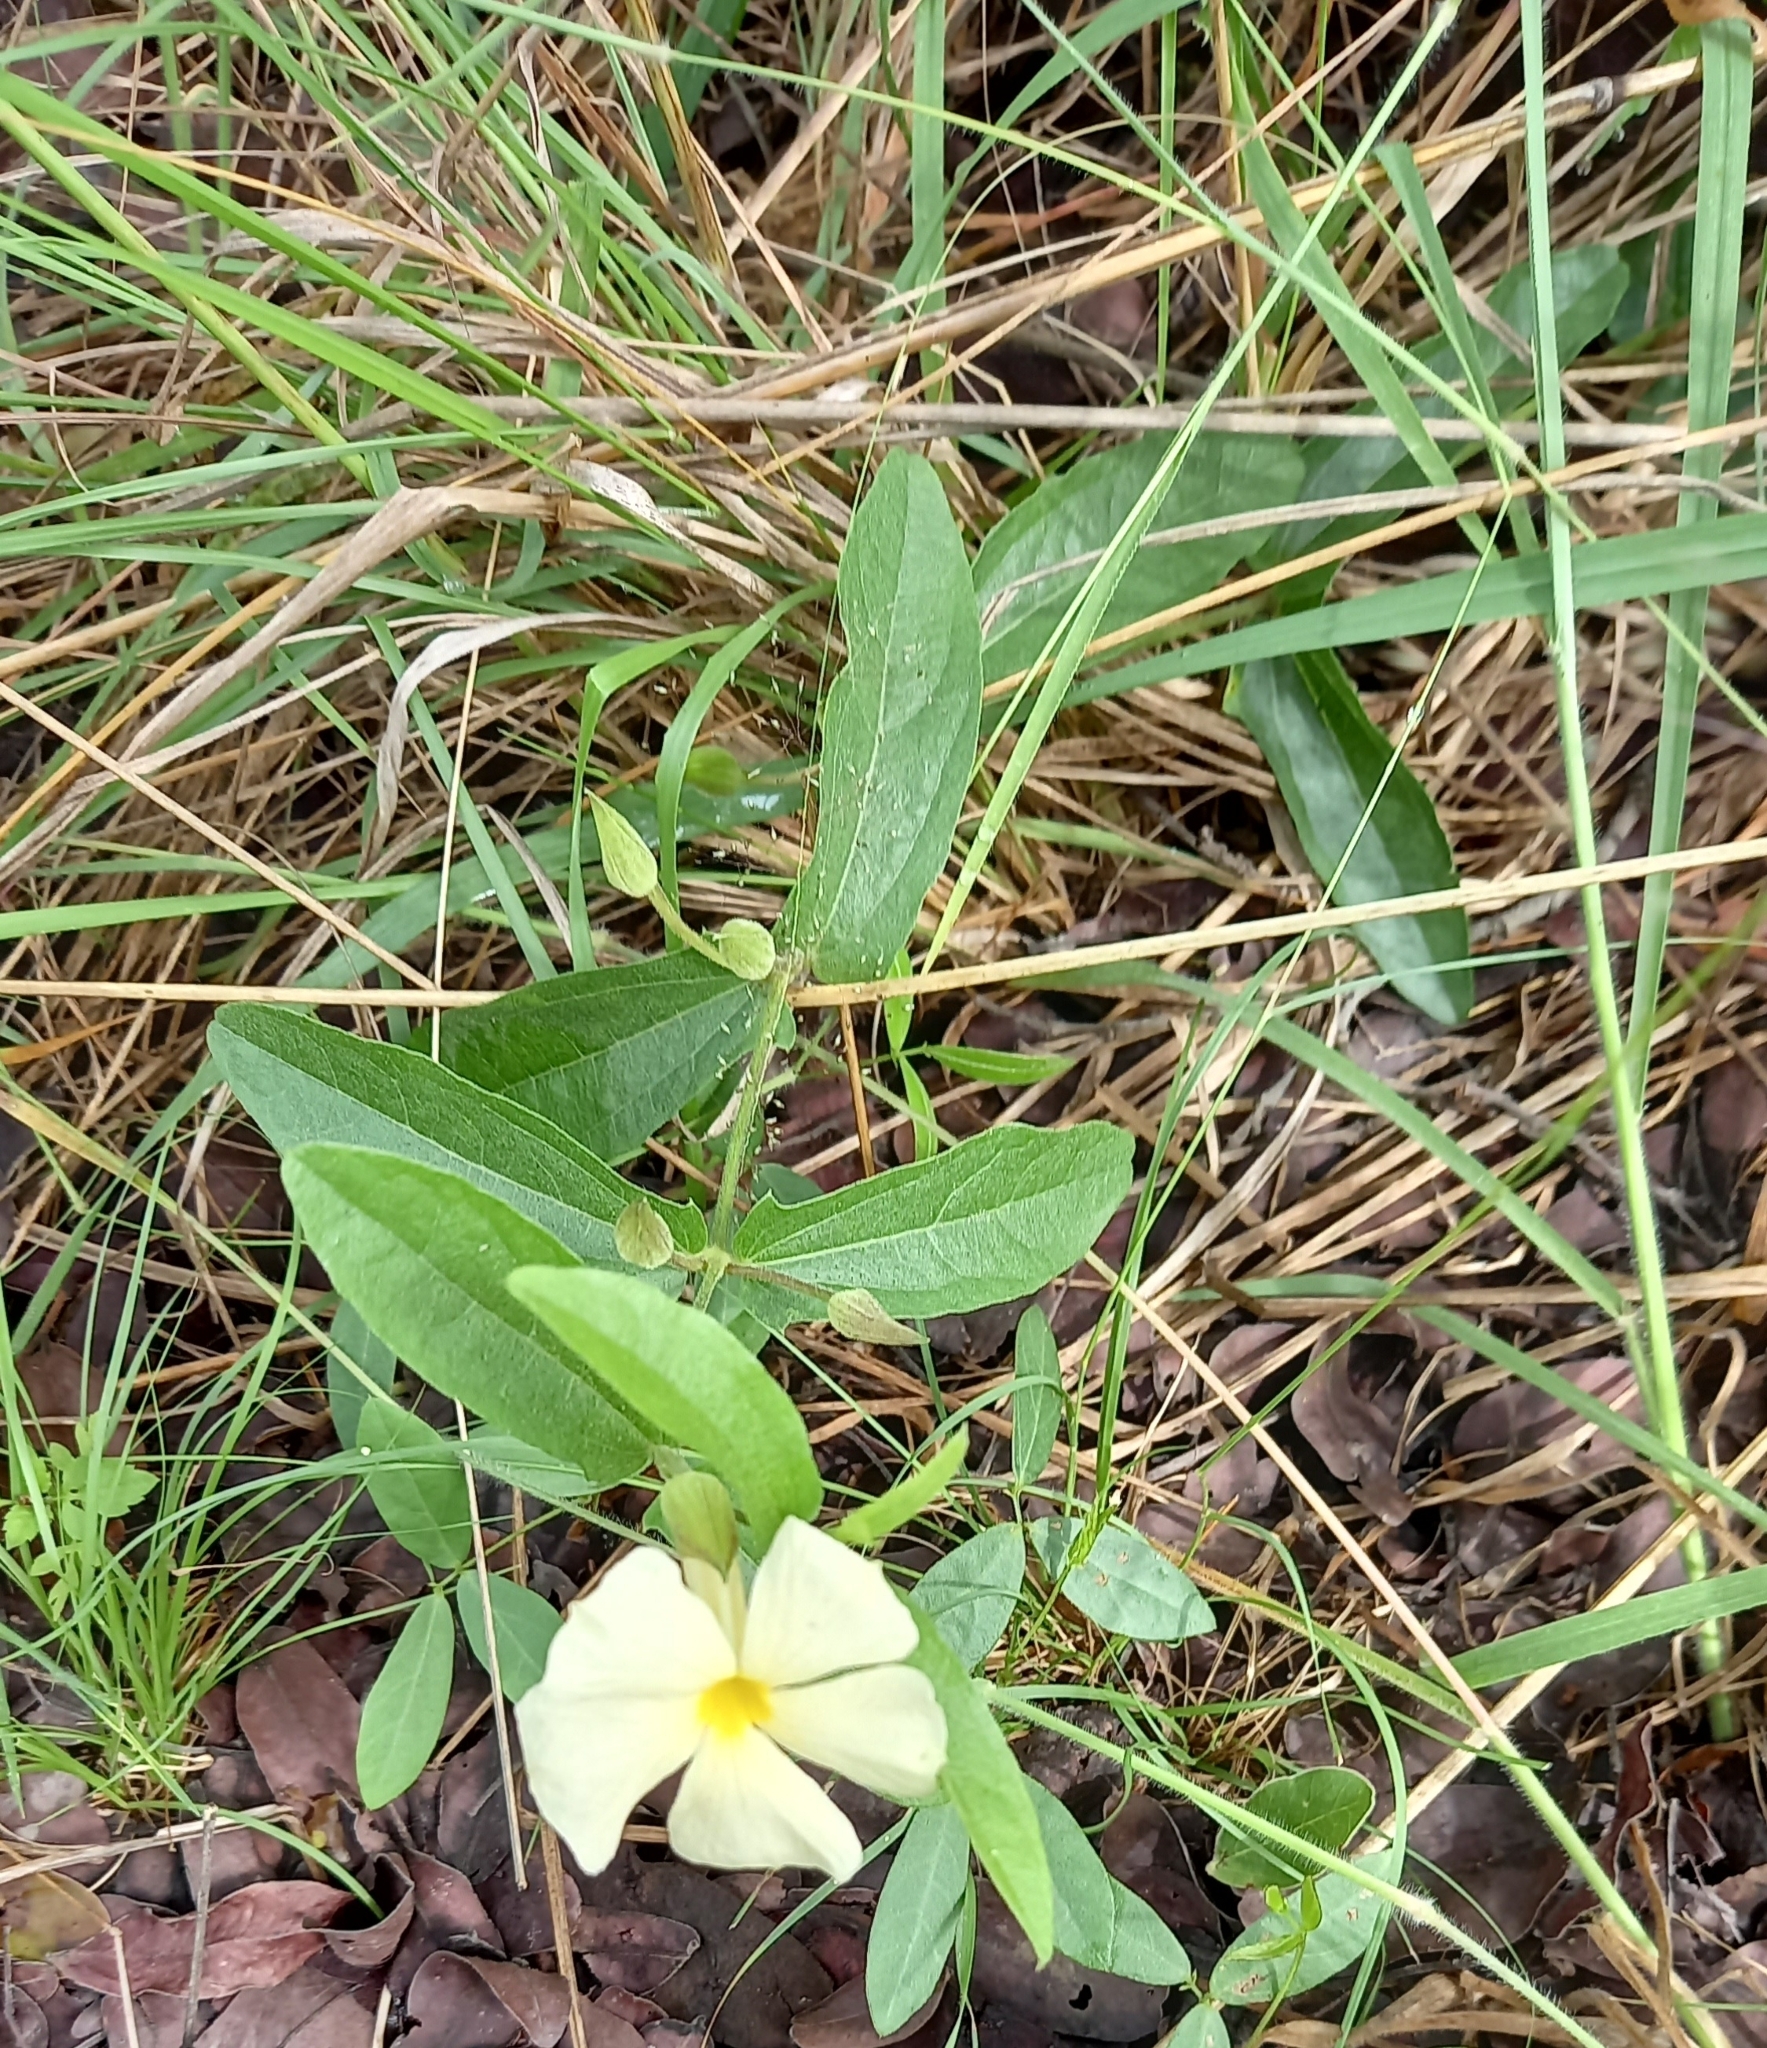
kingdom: Plantae
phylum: Tracheophyta
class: Magnoliopsida
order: Lamiales
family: Acanthaceae
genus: Thunbergia
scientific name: Thunbergia huillensis
